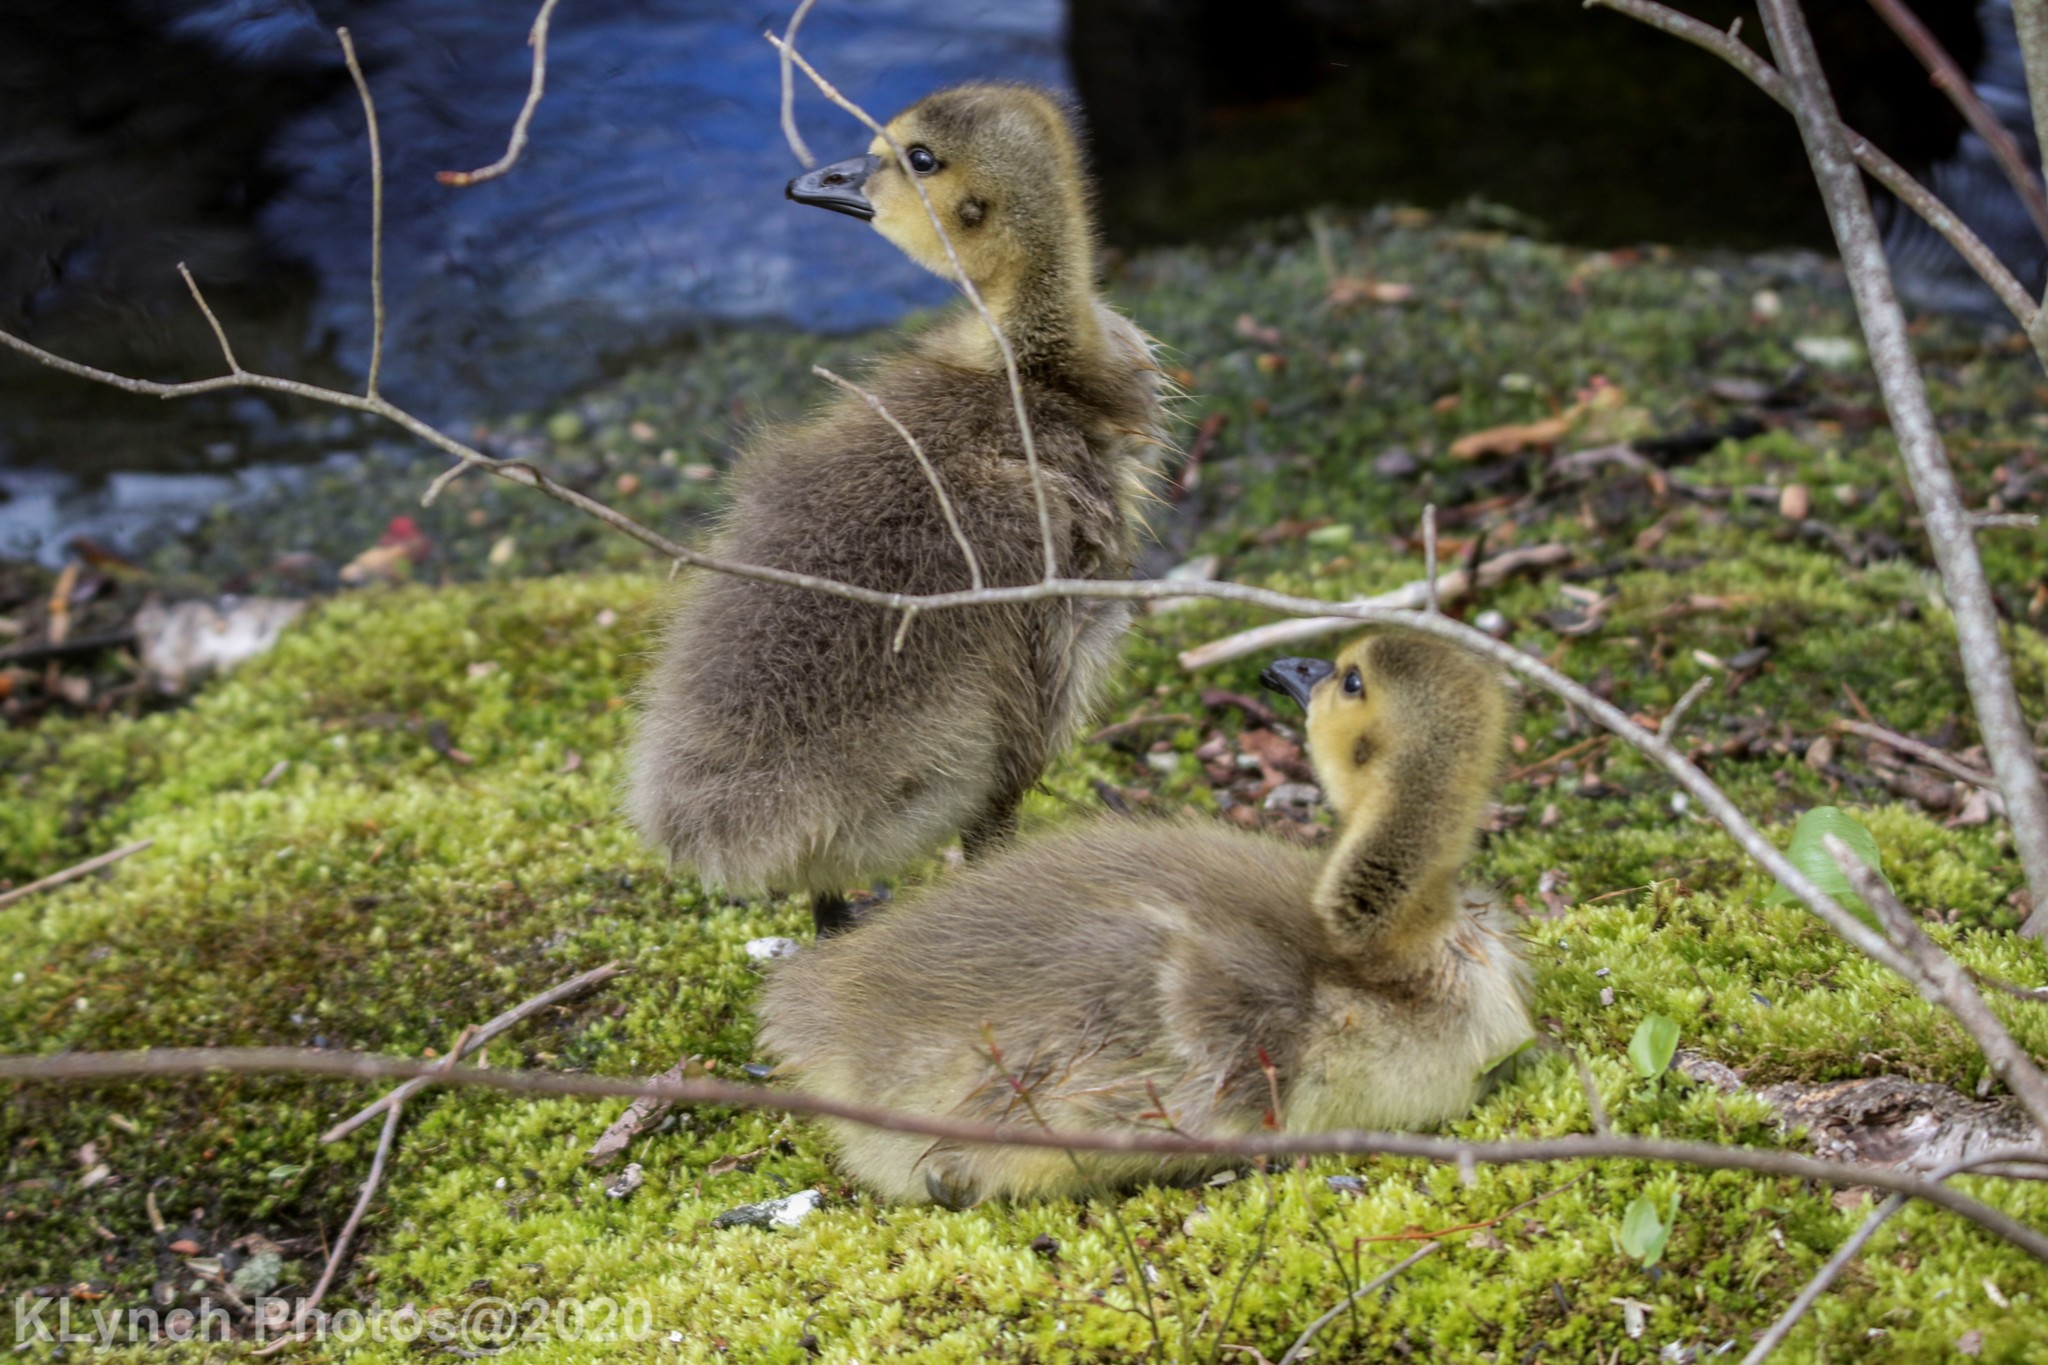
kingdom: Animalia
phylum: Chordata
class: Aves
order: Anseriformes
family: Anatidae
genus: Branta
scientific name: Branta canadensis
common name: Canada goose
